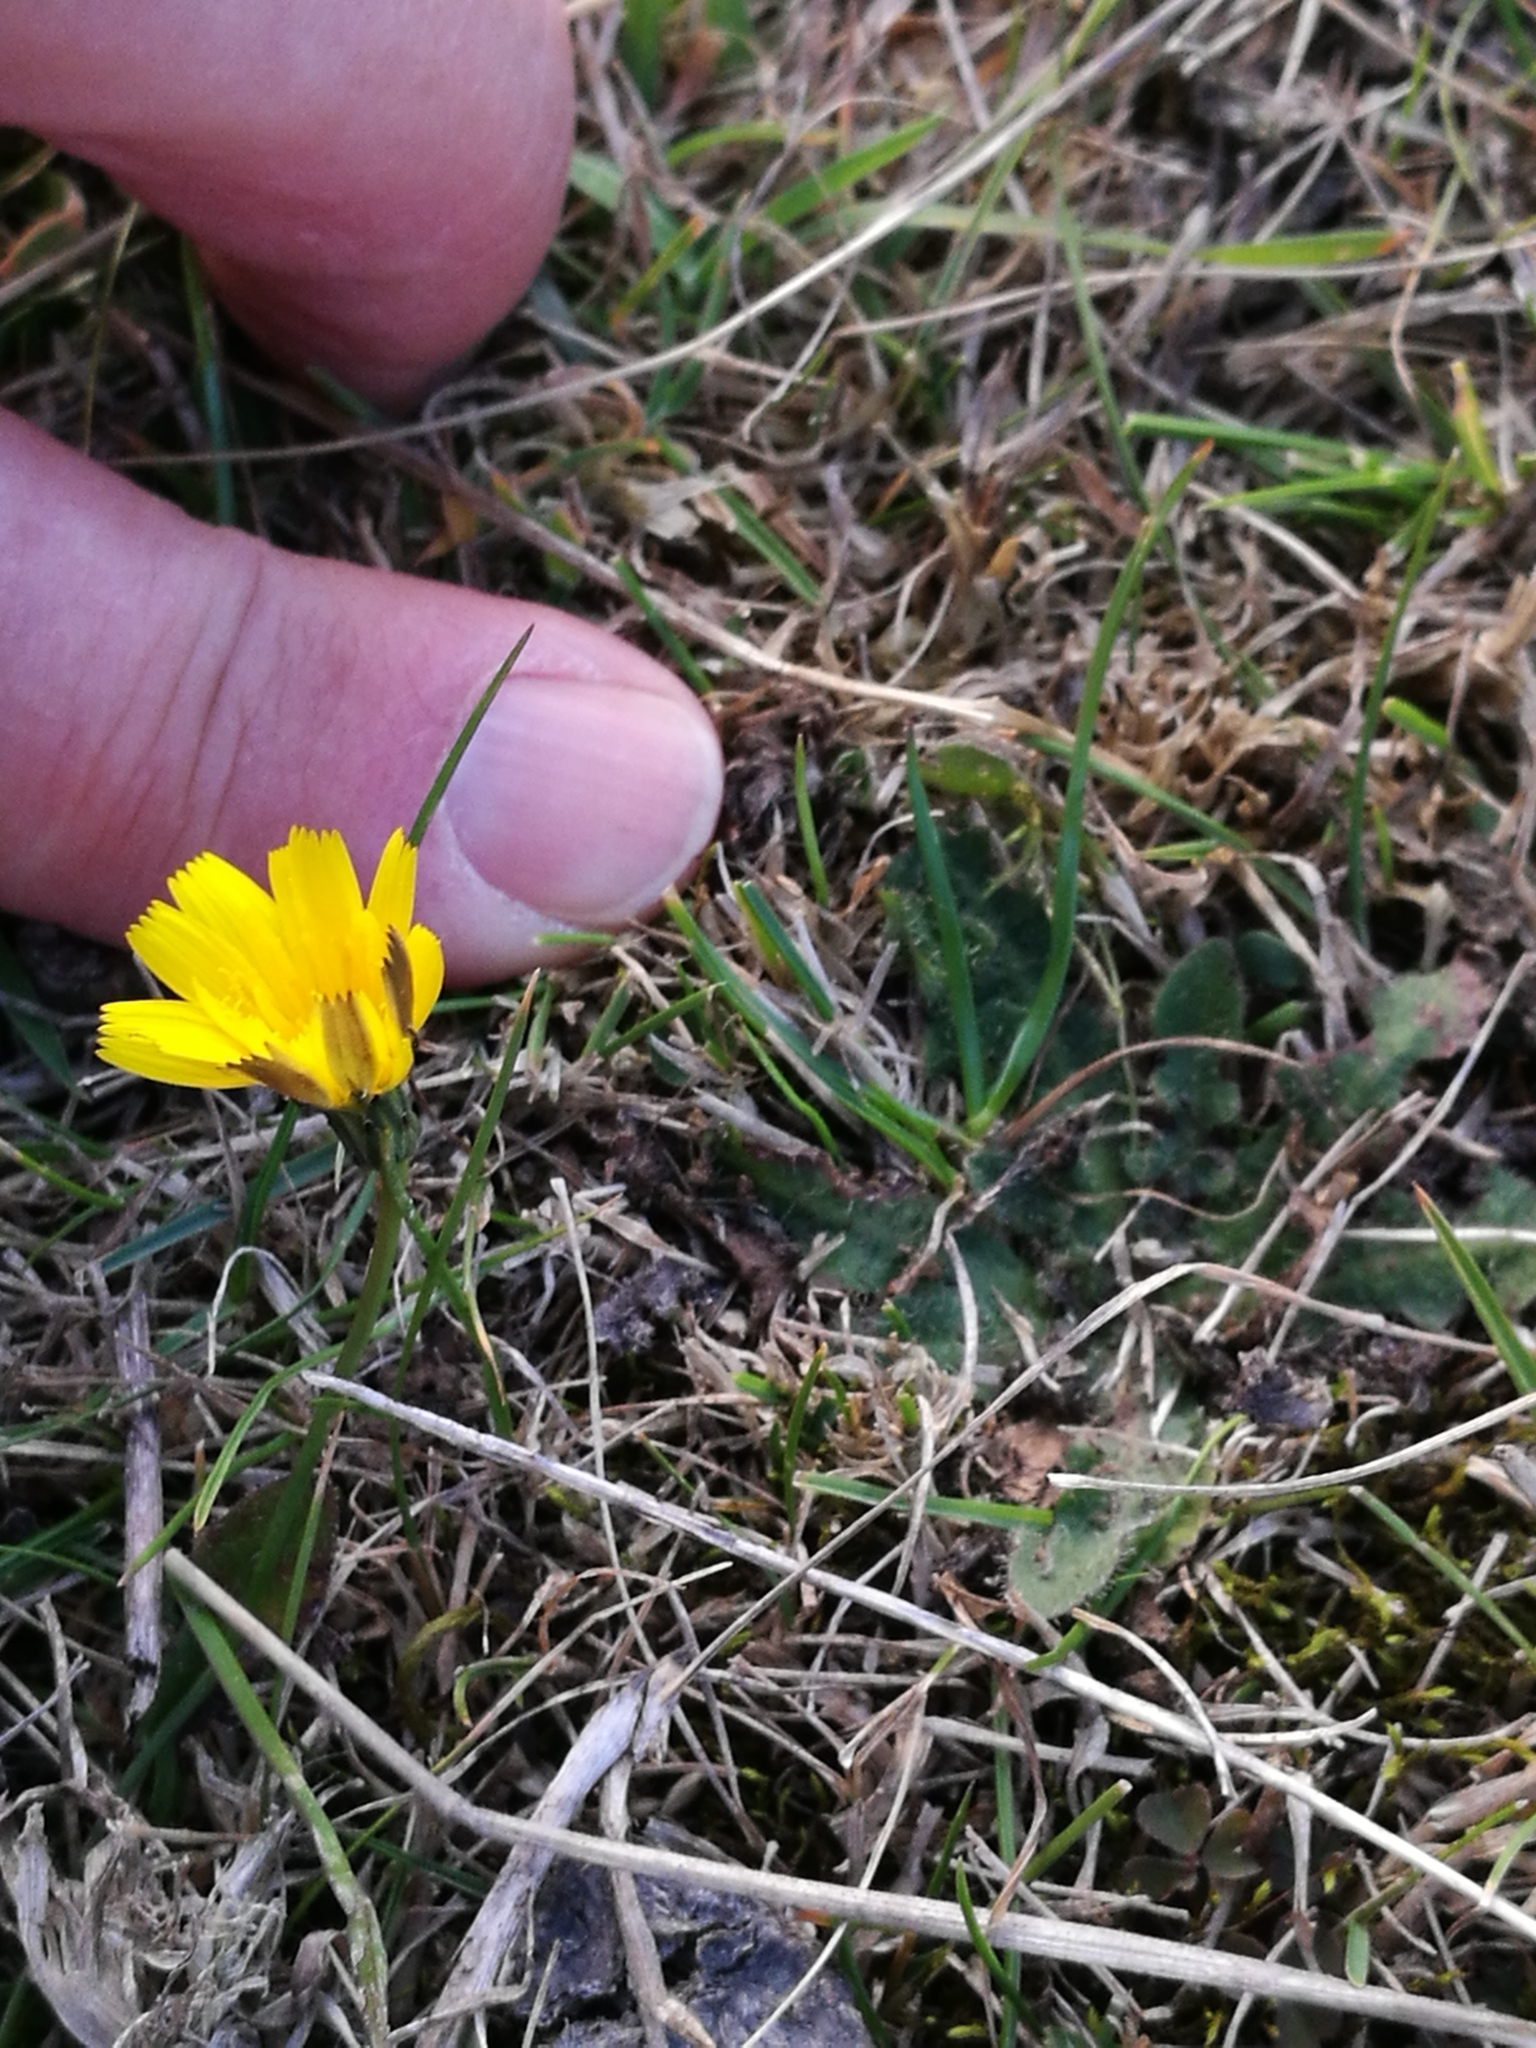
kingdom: Plantae
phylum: Tracheophyta
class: Magnoliopsida
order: Asterales
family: Asteraceae
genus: Hypochaeris
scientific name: Hypochaeris radicata
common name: Flatweed
